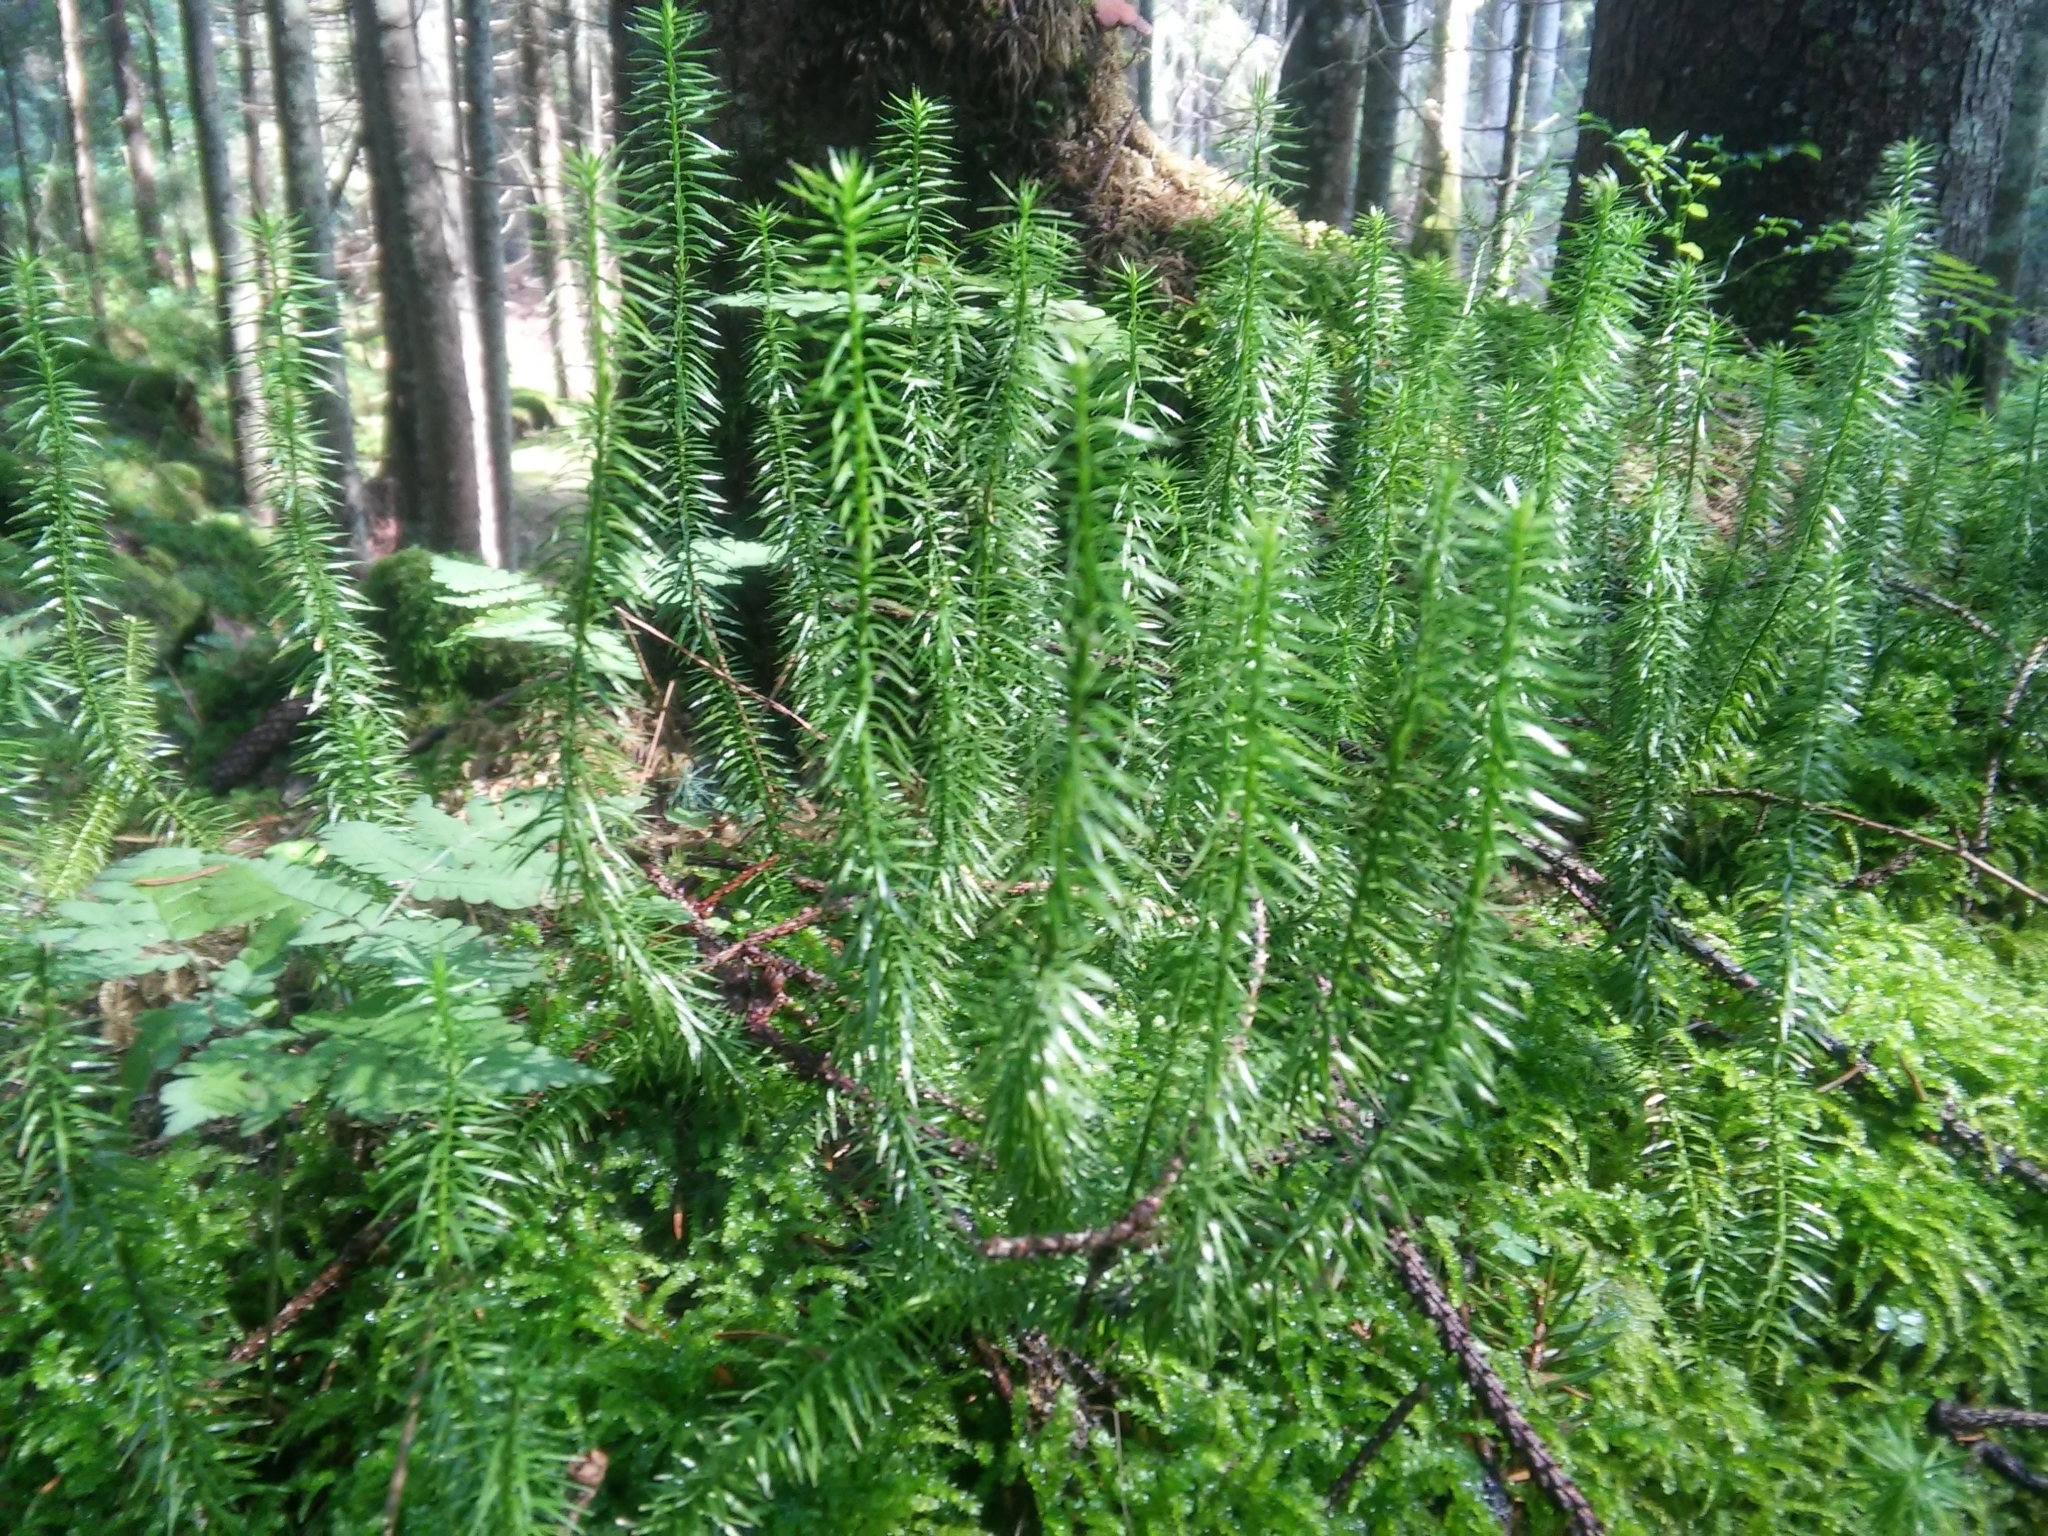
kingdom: Plantae
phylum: Tracheophyta
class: Lycopodiopsida
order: Lycopodiales
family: Lycopodiaceae
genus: Spinulum
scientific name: Spinulum annotinum
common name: Interrupted club-moss
